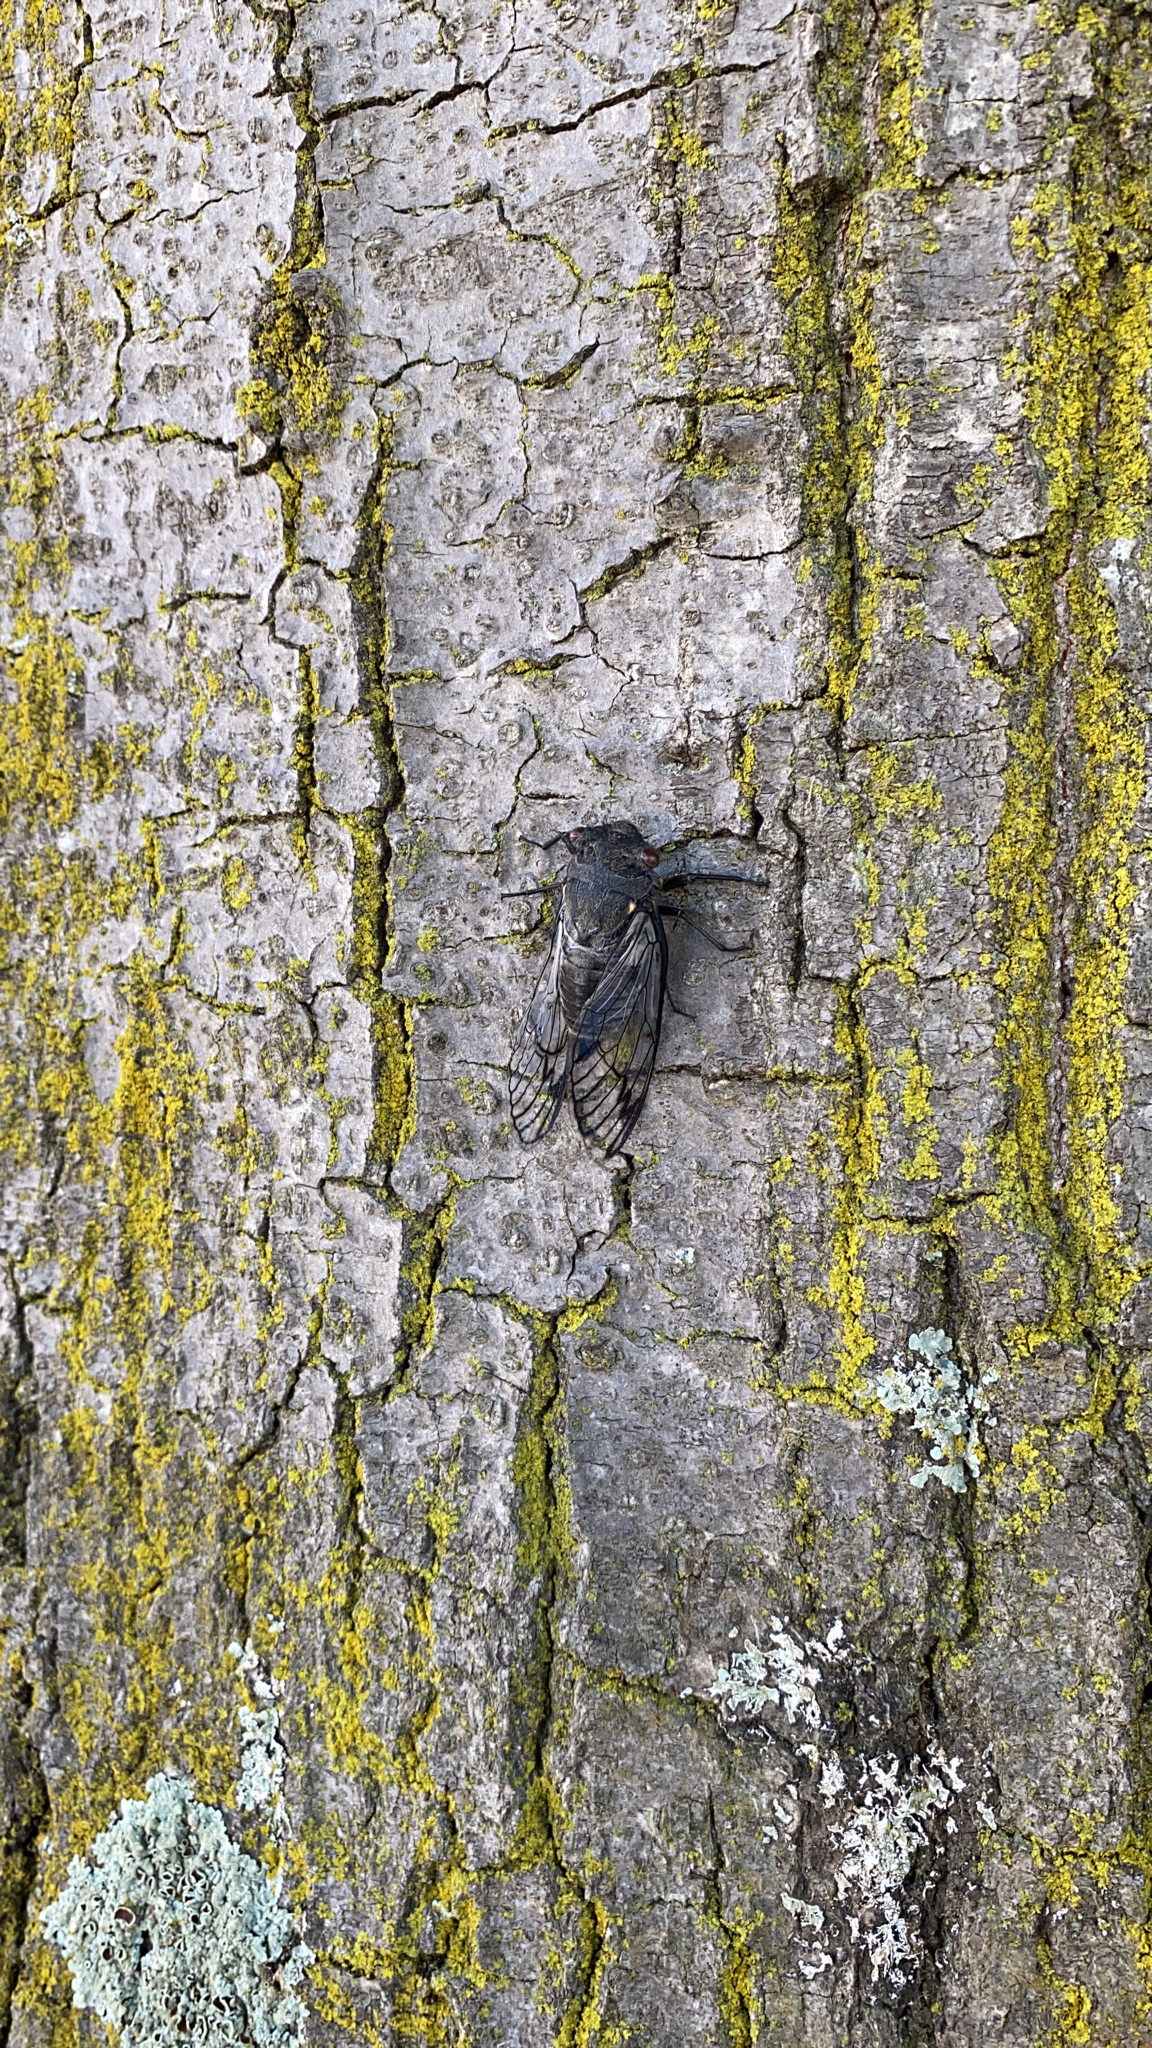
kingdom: Animalia
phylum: Arthropoda
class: Insecta
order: Hemiptera
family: Cicadidae
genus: Psaltoda
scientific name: Psaltoda moerens
